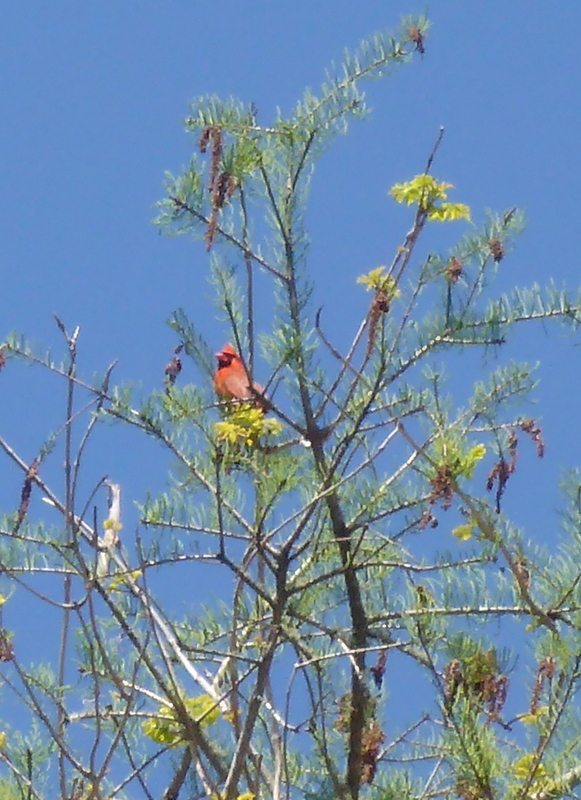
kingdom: Animalia
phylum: Chordata
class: Aves
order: Passeriformes
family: Cardinalidae
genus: Cardinalis
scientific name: Cardinalis cardinalis
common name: Northern cardinal
